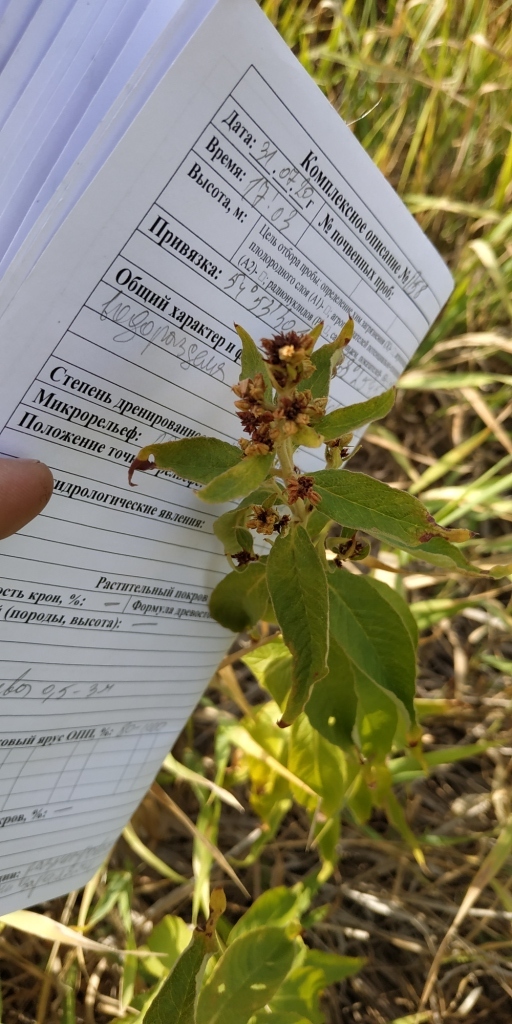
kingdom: Plantae
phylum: Tracheophyta
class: Magnoliopsida
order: Ericales
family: Primulaceae
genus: Lysimachia
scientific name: Lysimachia vulgaris
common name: Yellow loosestrife
